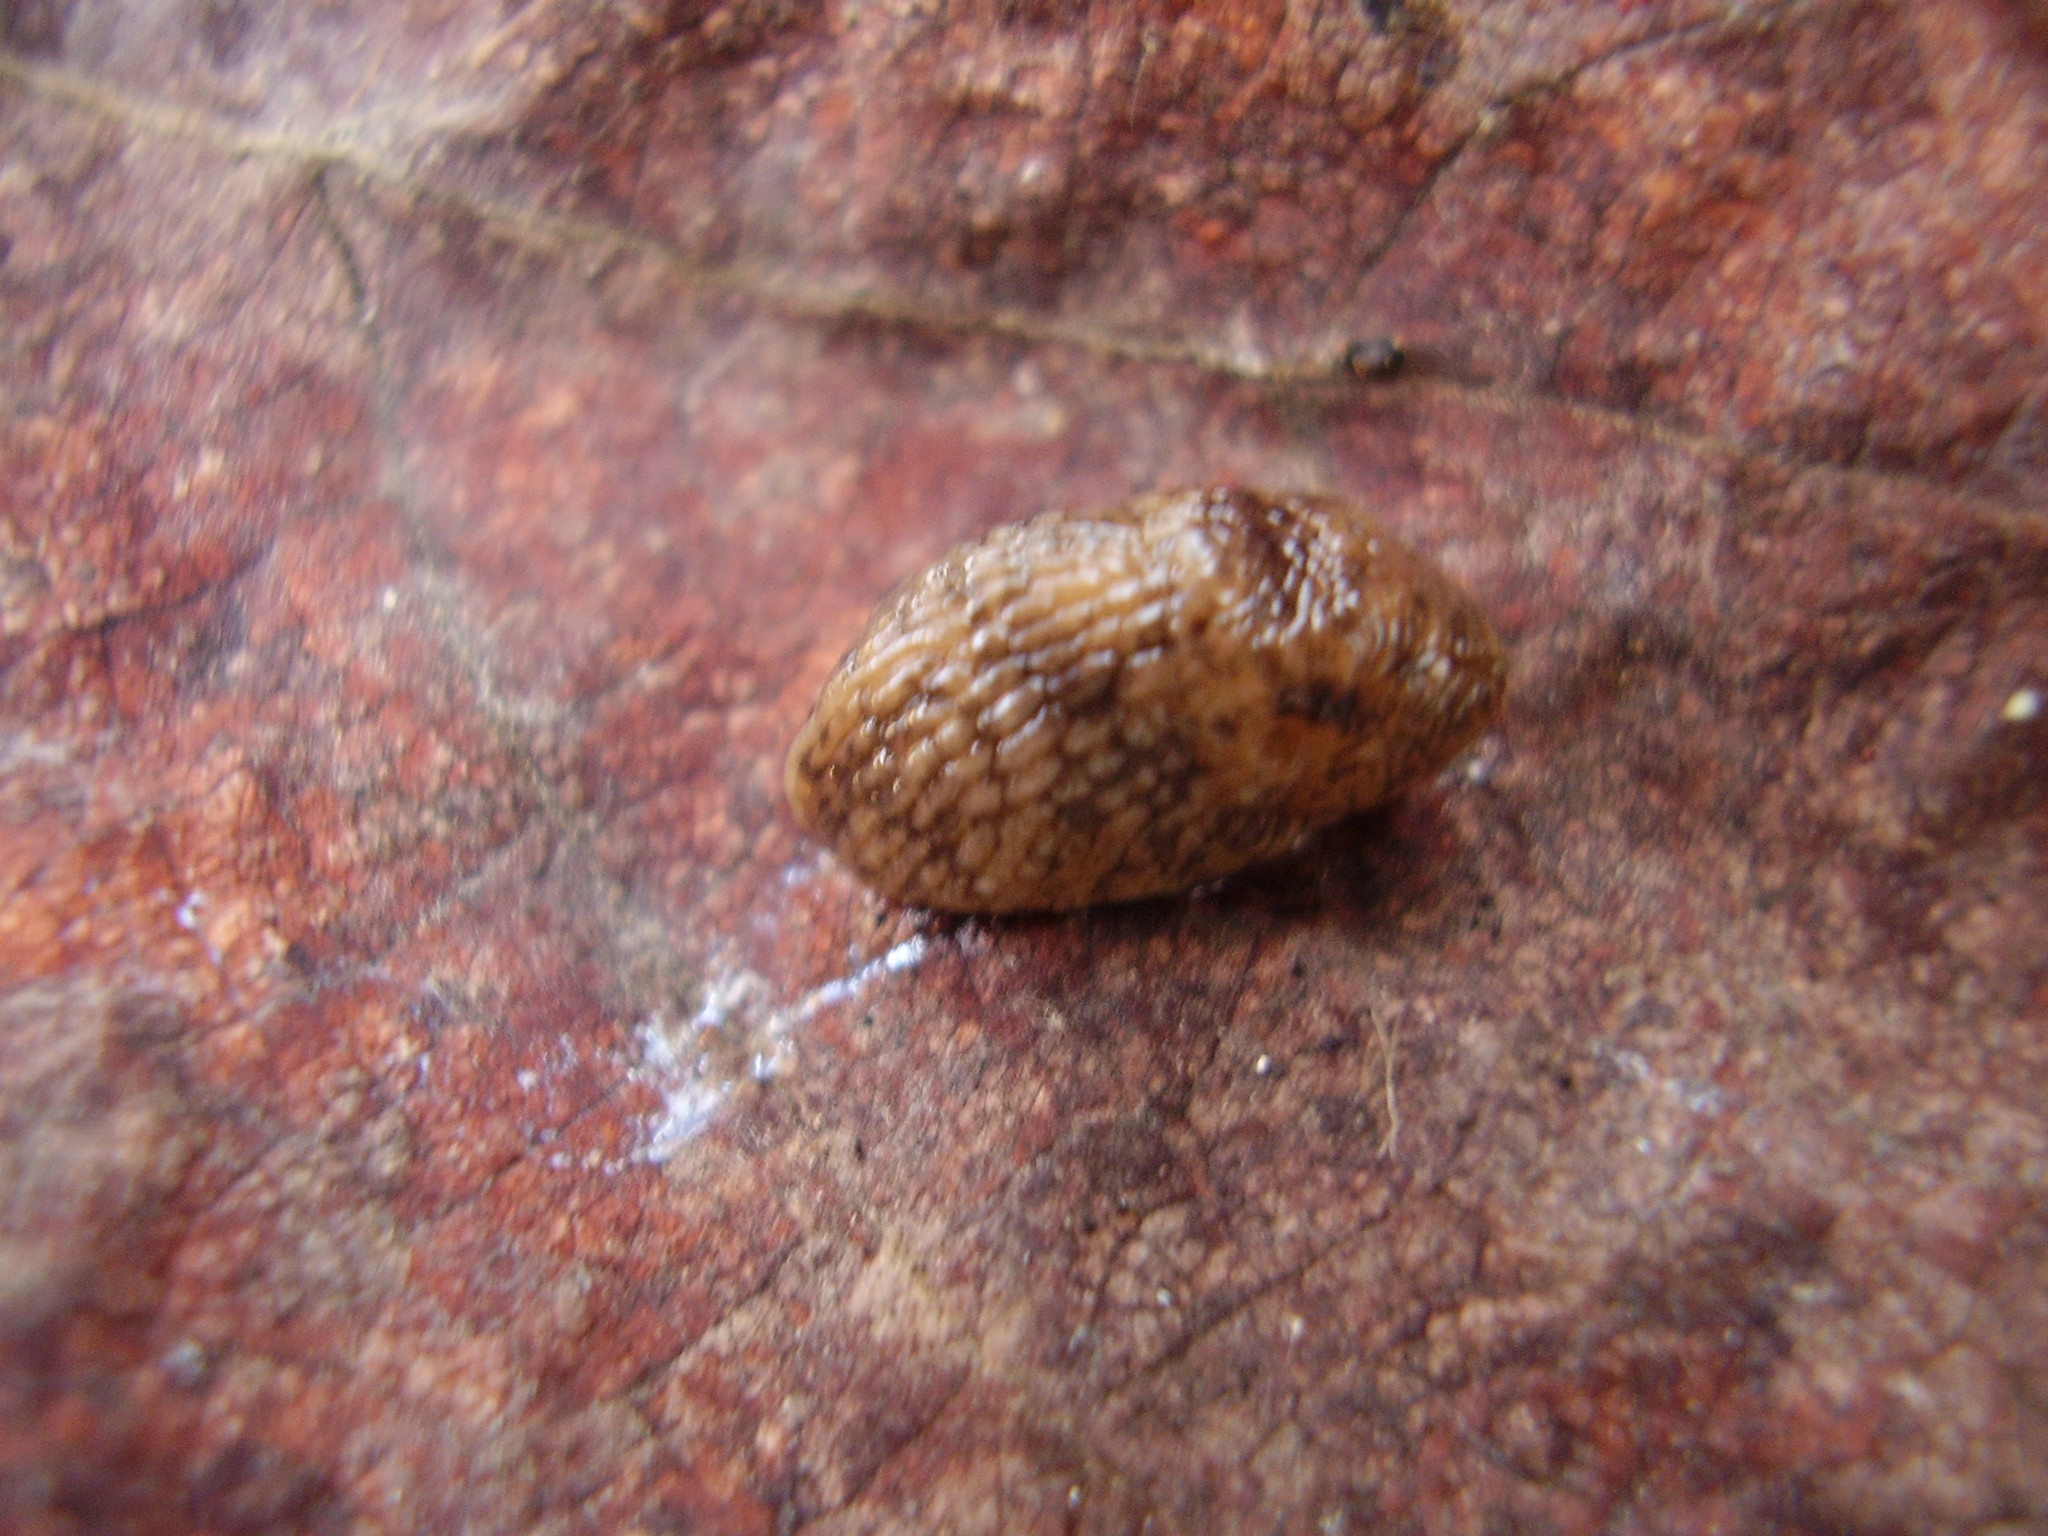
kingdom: Animalia
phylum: Mollusca
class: Gastropoda
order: Stylommatophora
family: Agriolimacidae
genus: Deroceras
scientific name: Deroceras reticulatum
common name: Gray field slug
